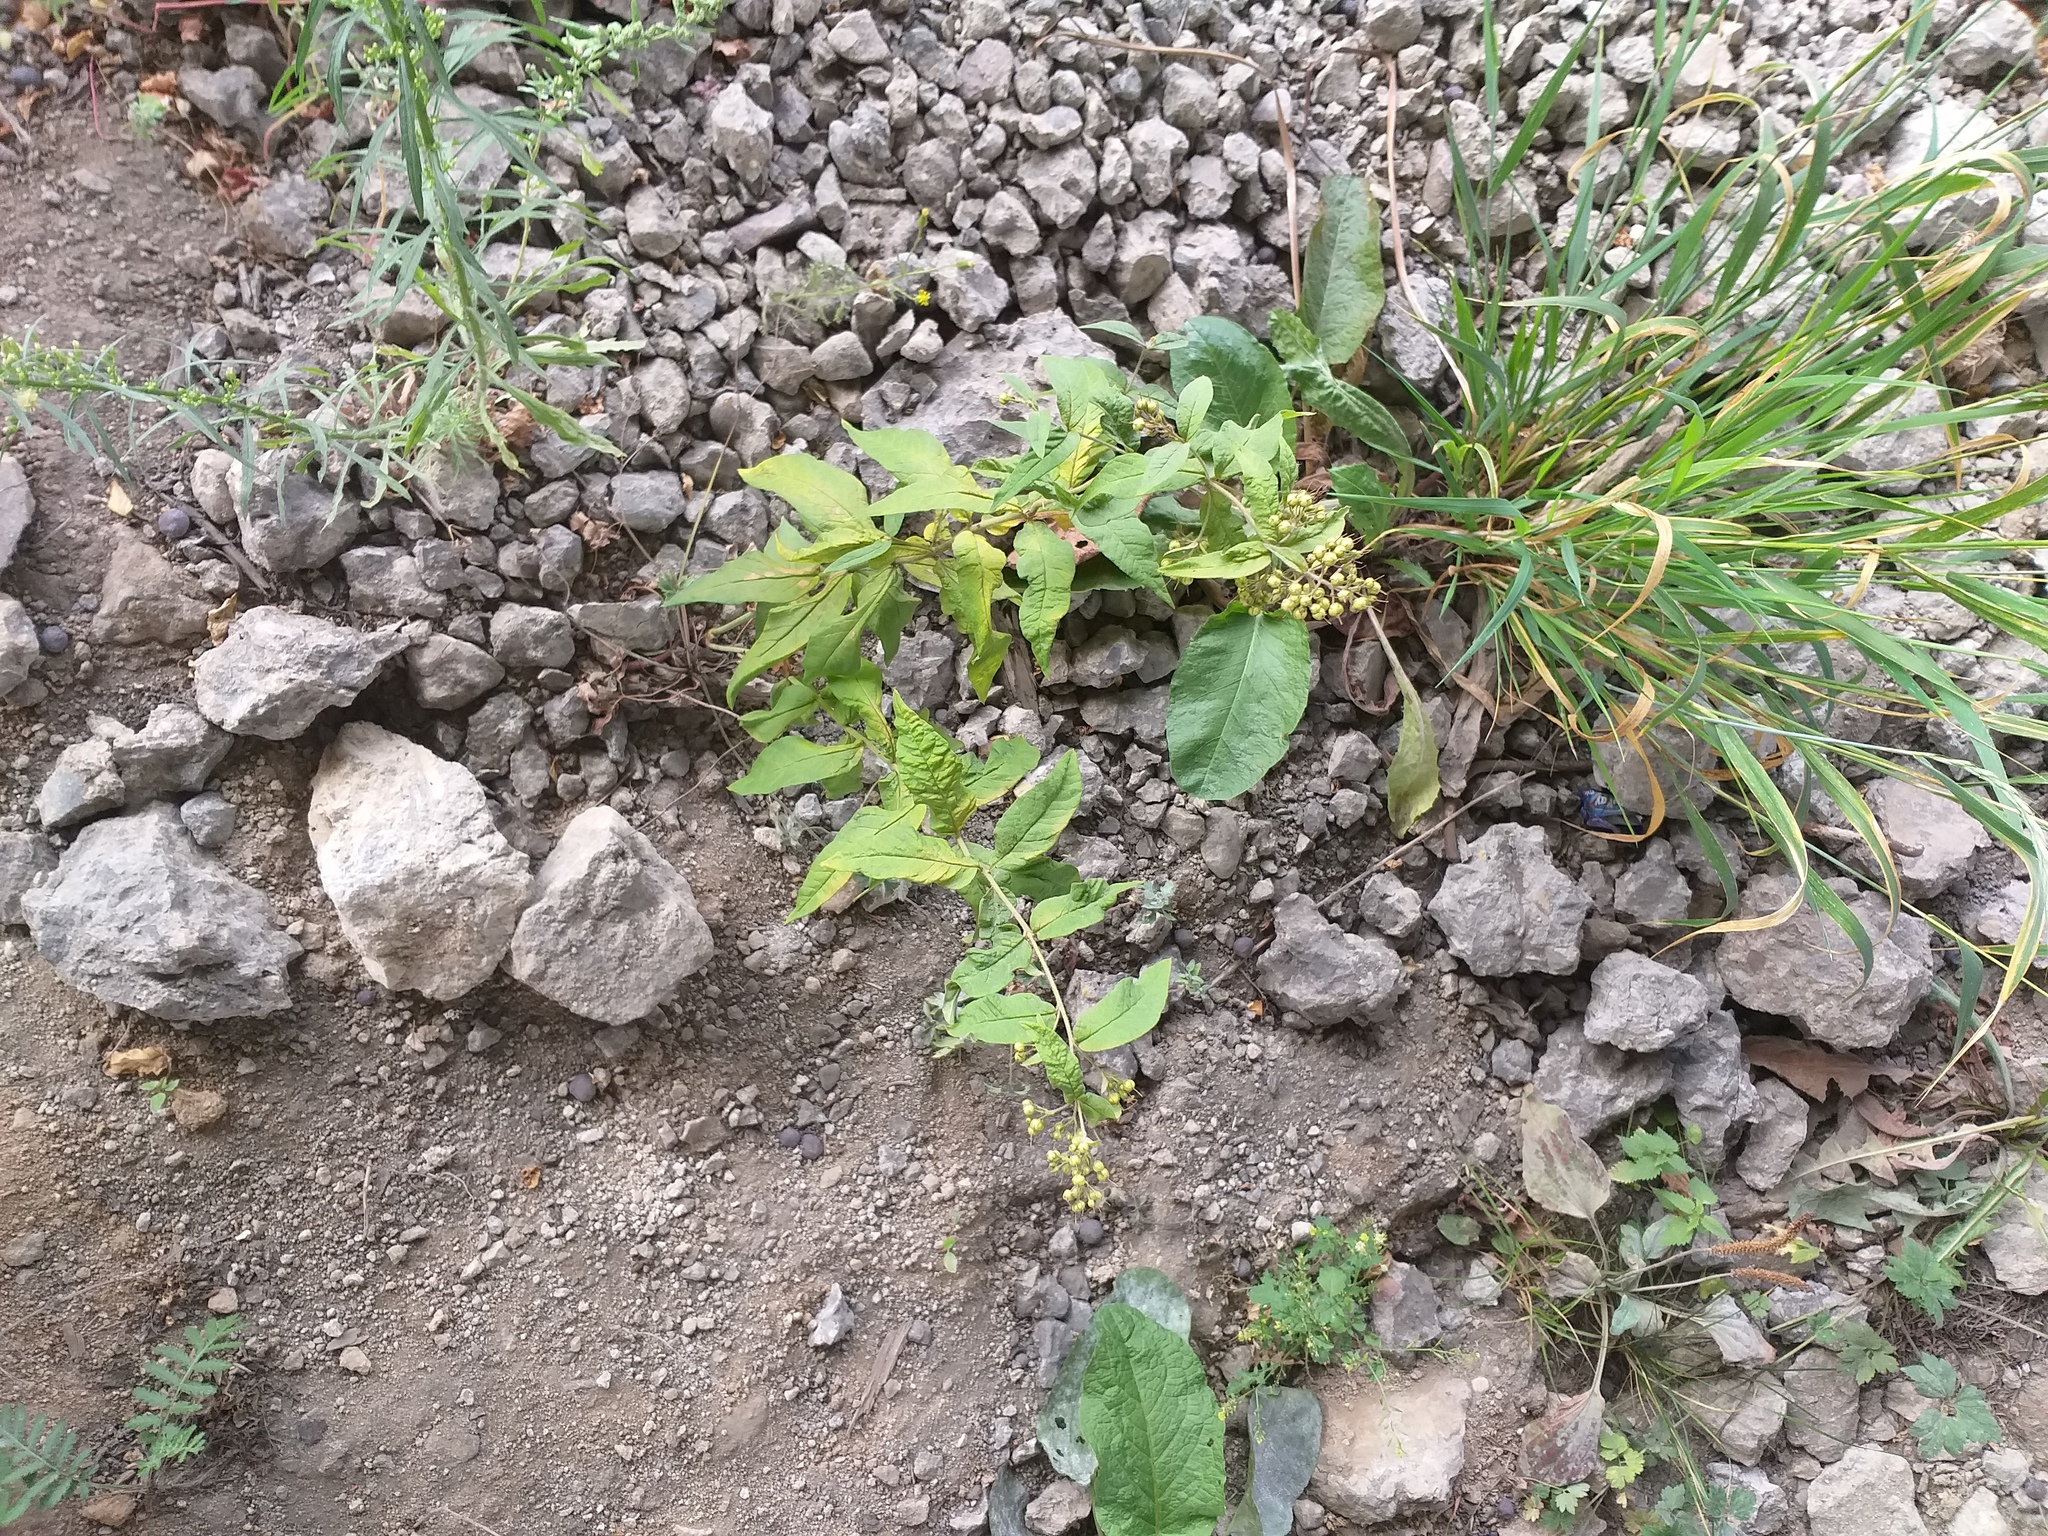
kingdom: Plantae
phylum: Tracheophyta
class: Magnoliopsida
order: Ericales
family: Primulaceae
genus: Lysimachia
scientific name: Lysimachia vulgaris
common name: Yellow loosestrife
